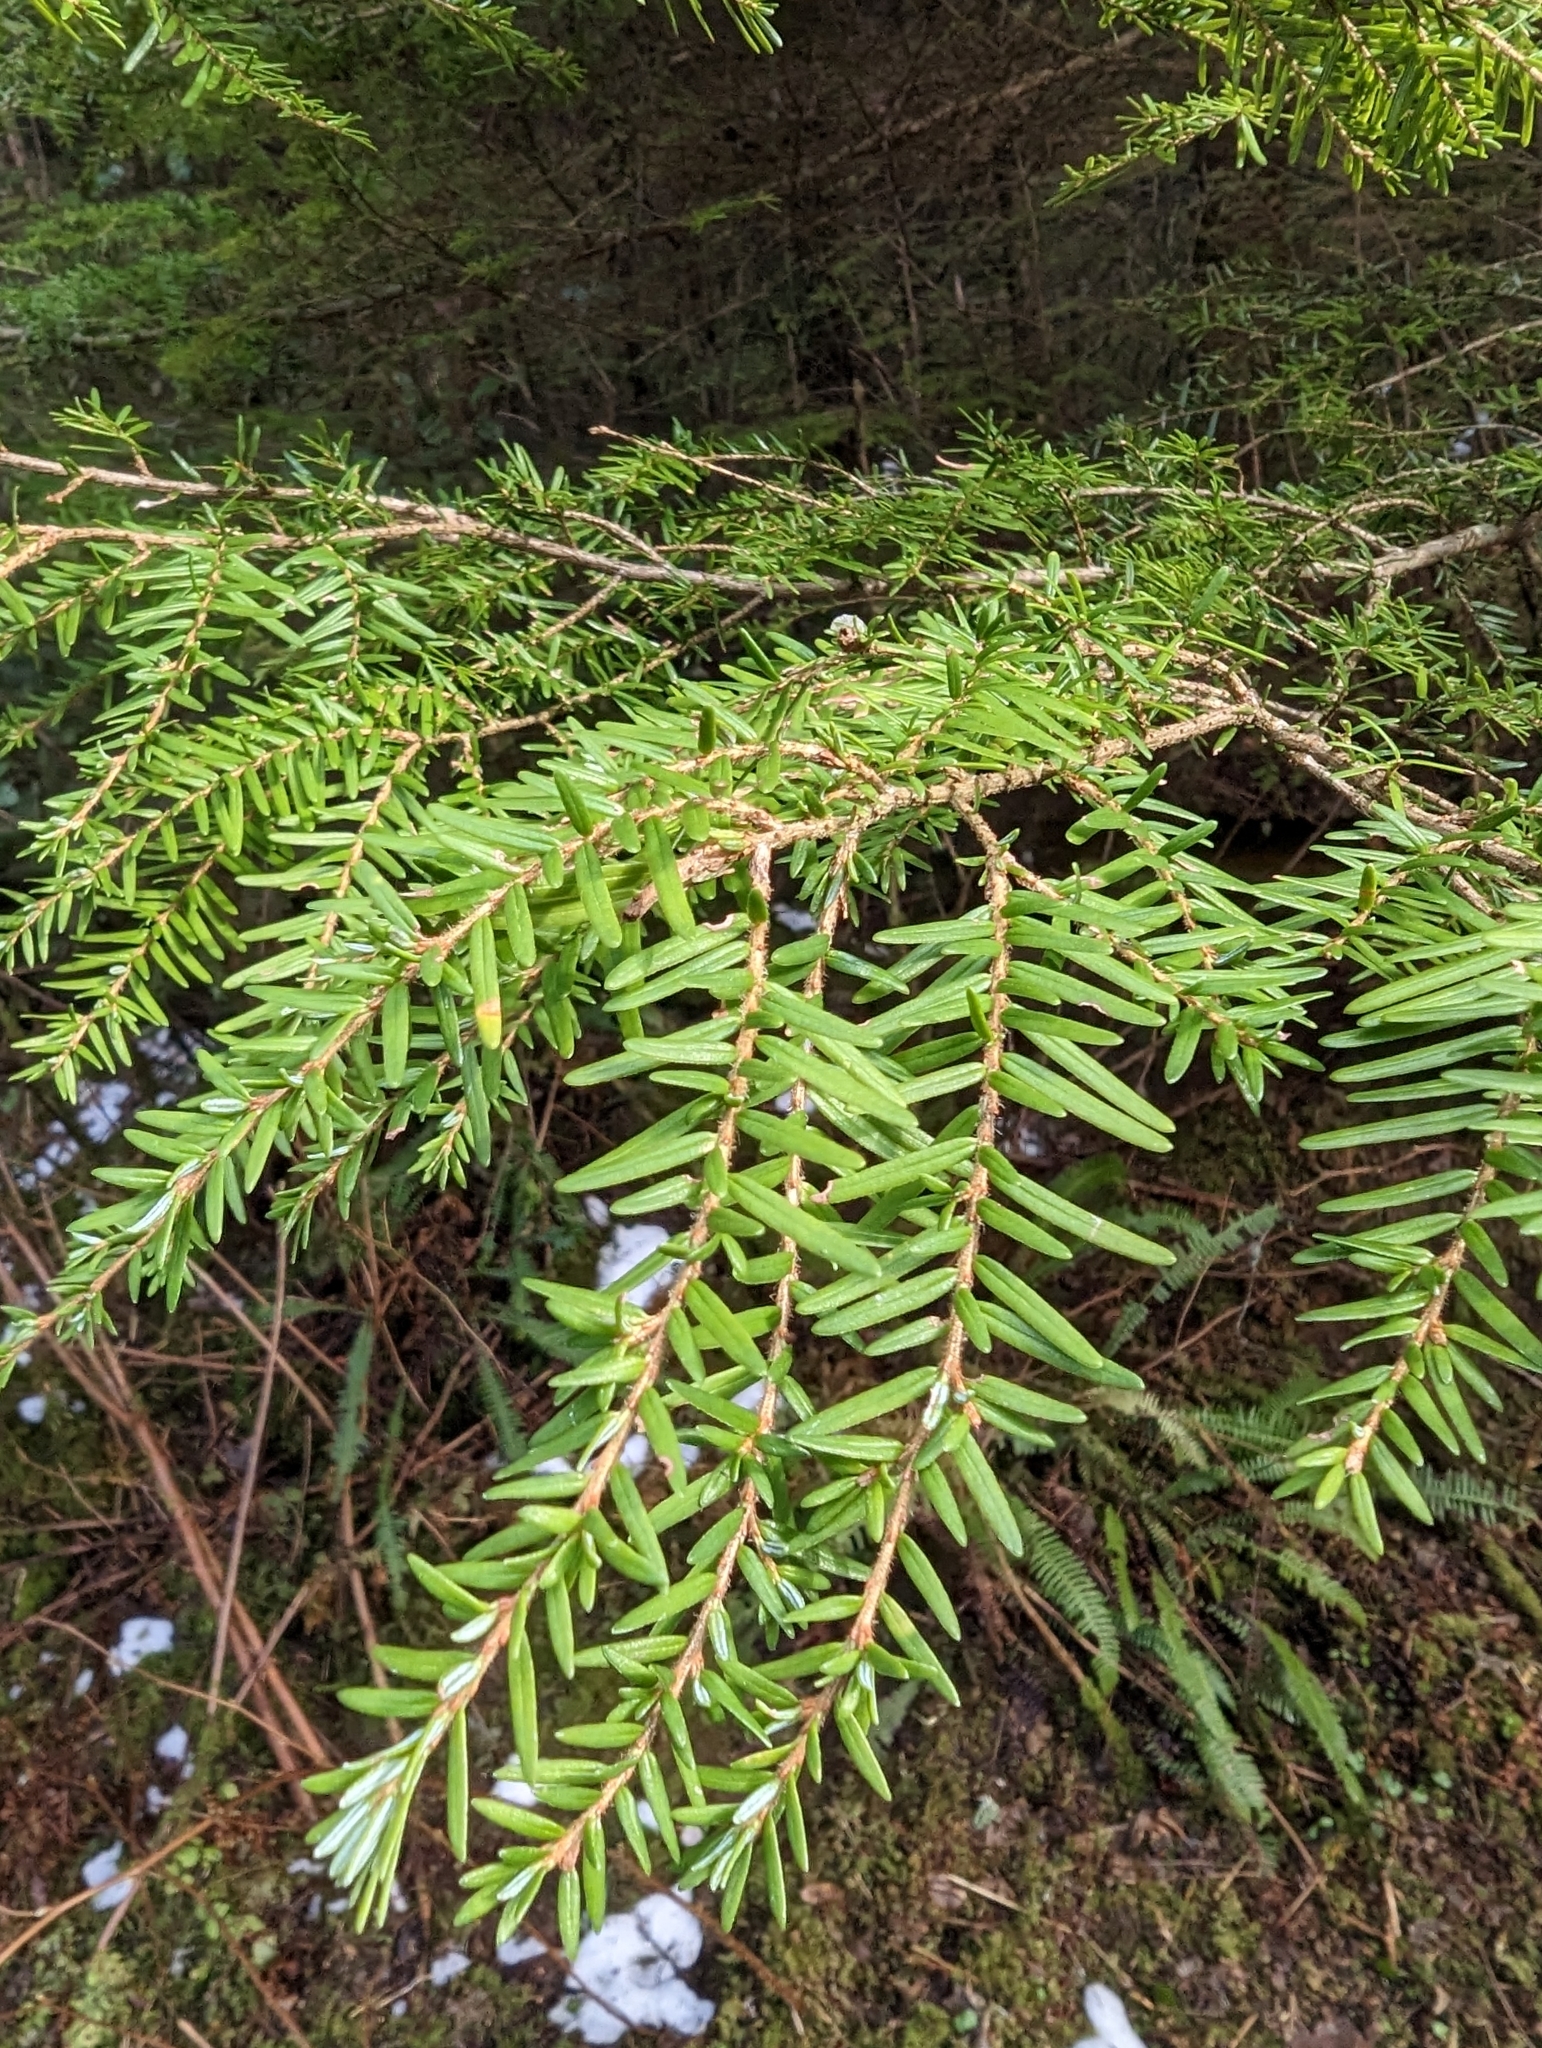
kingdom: Plantae
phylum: Tracheophyta
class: Pinopsida
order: Pinales
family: Pinaceae
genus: Tsuga
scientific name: Tsuga heterophylla
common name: Western hemlock
